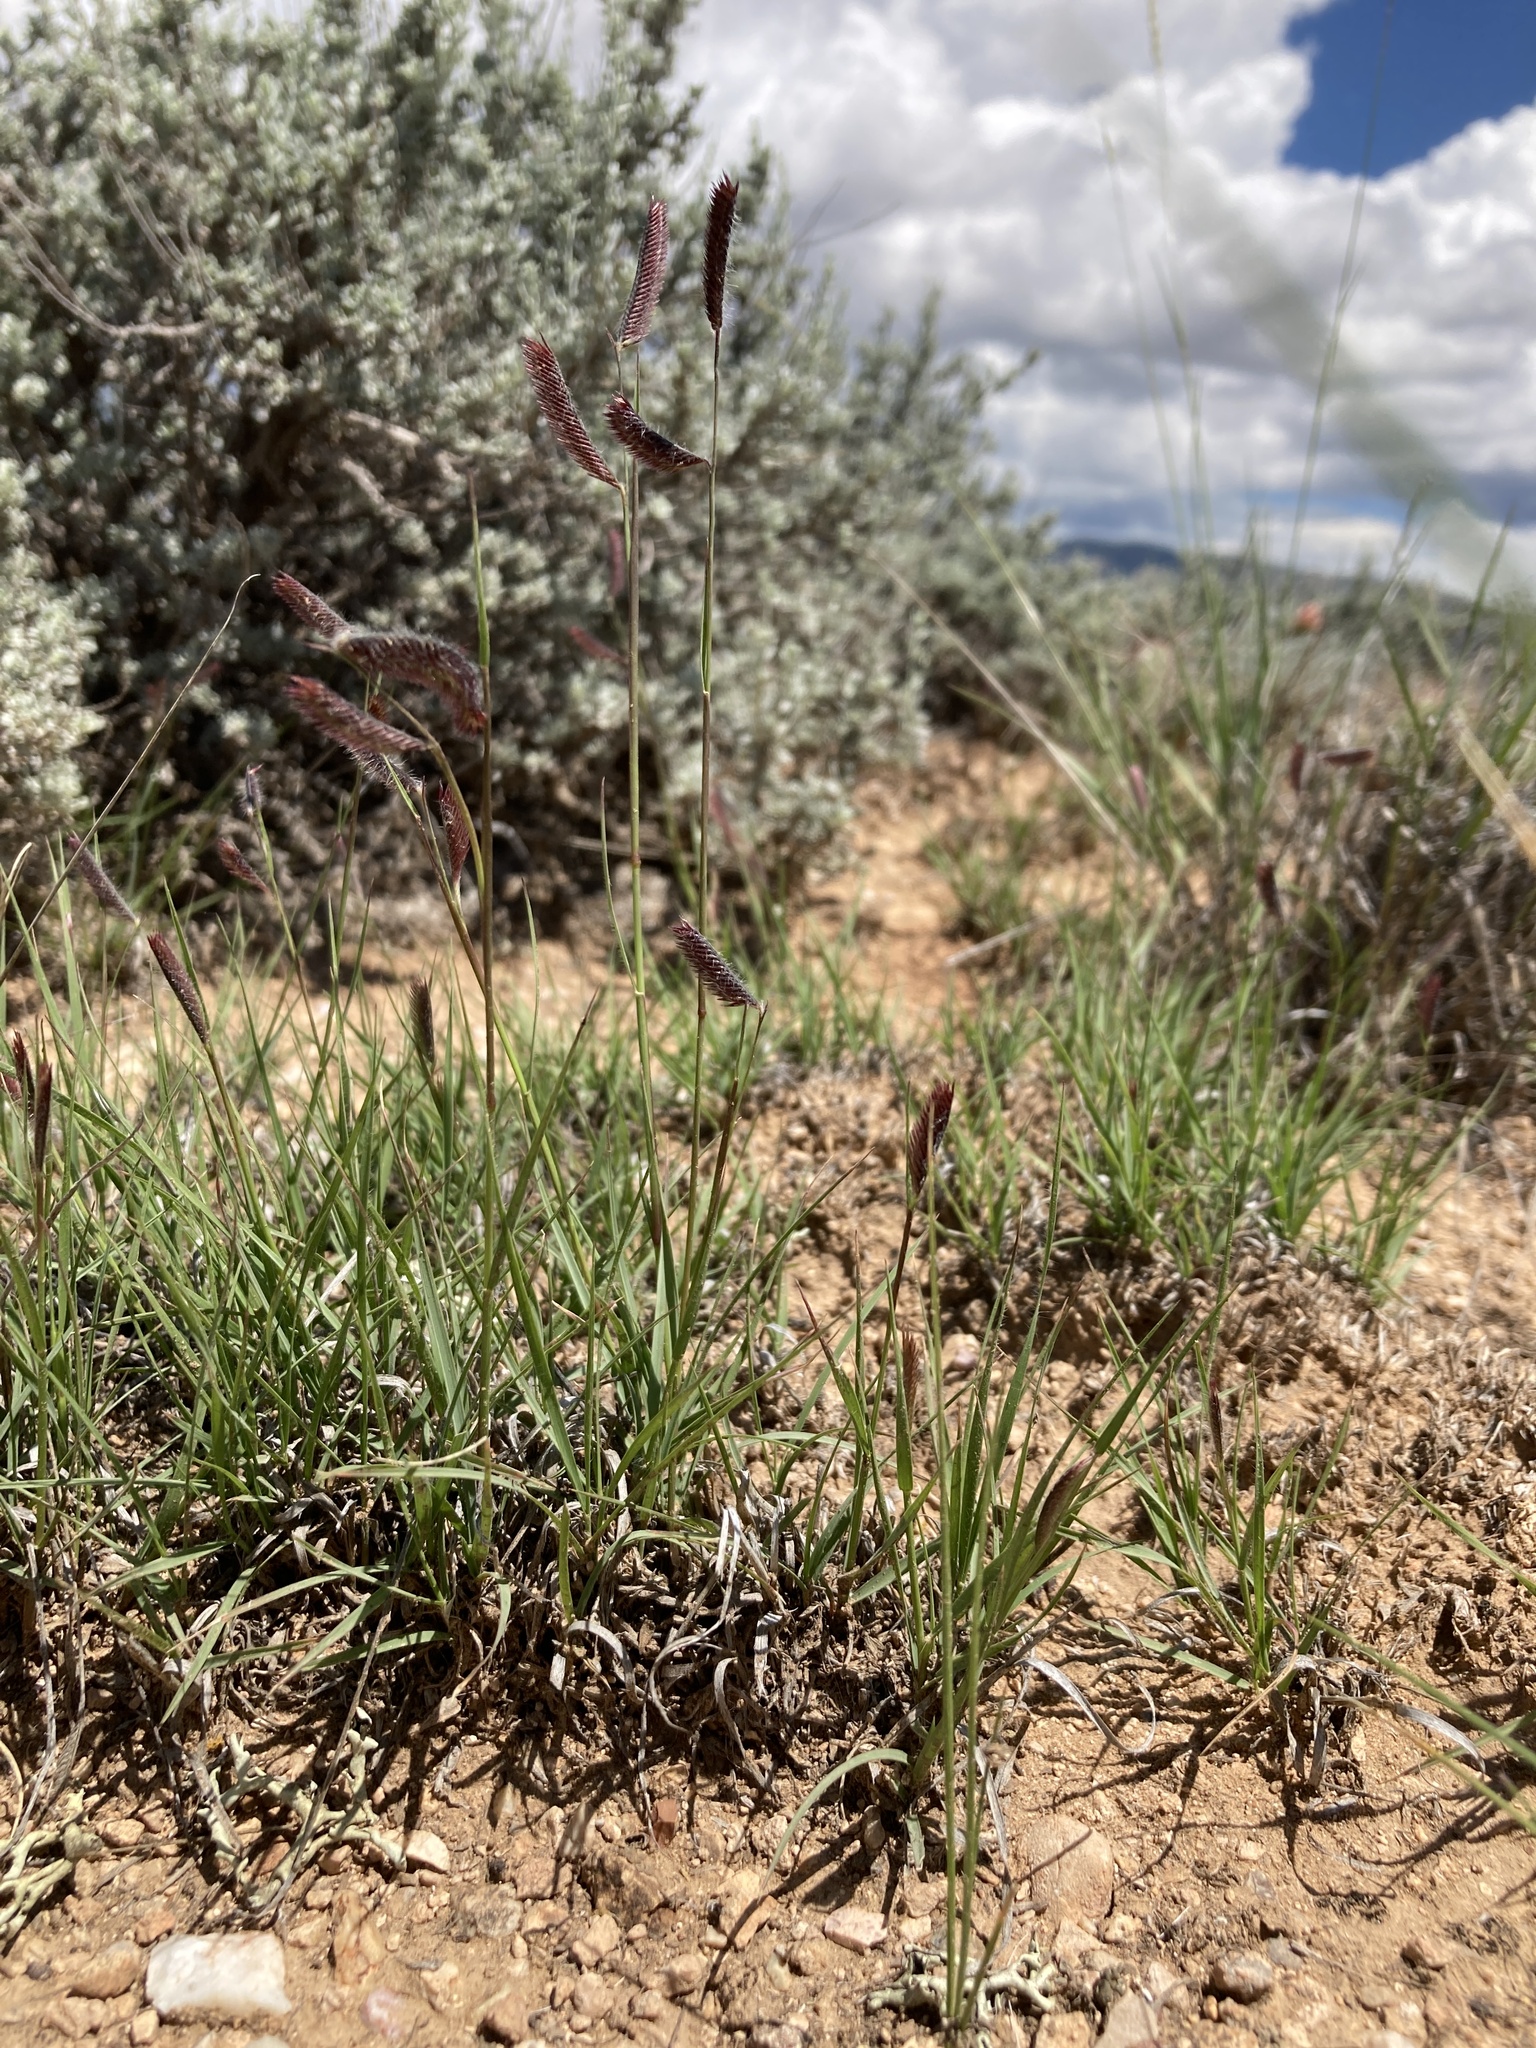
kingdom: Plantae
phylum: Tracheophyta
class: Liliopsida
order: Poales
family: Poaceae
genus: Bouteloua
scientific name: Bouteloua gracilis
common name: Blue grama
